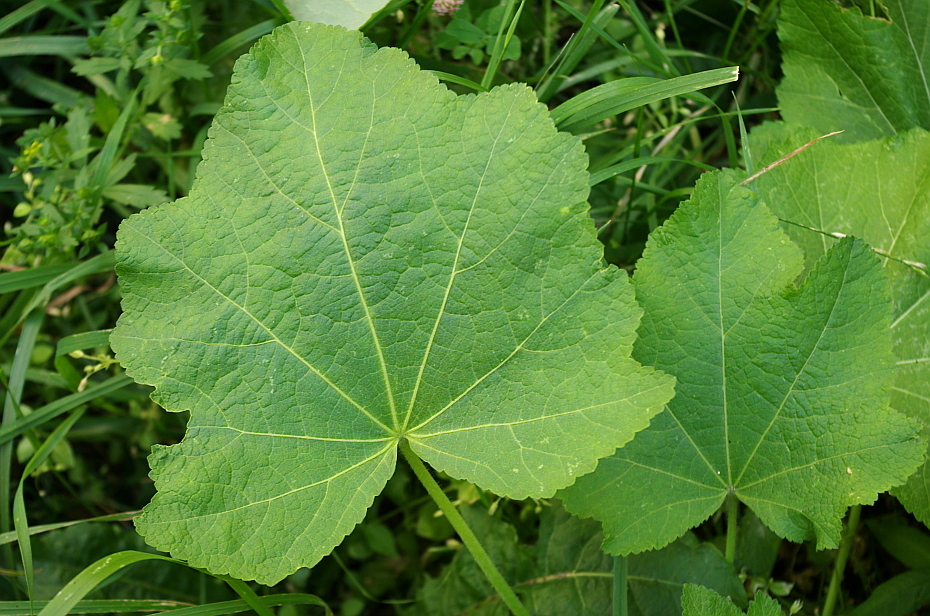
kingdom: Plantae
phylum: Tracheophyta
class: Magnoliopsida
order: Malvales
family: Malvaceae
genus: Alcea
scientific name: Alcea rosea
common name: Hollyhock
